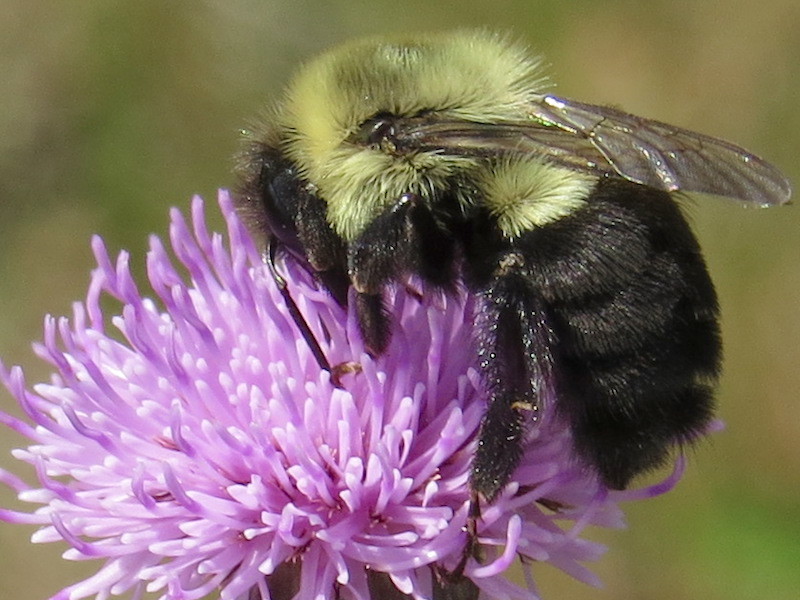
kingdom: Animalia
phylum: Arthropoda
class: Insecta
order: Hymenoptera
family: Apidae
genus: Bombus
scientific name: Bombus impatiens
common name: Common eastern bumble bee
